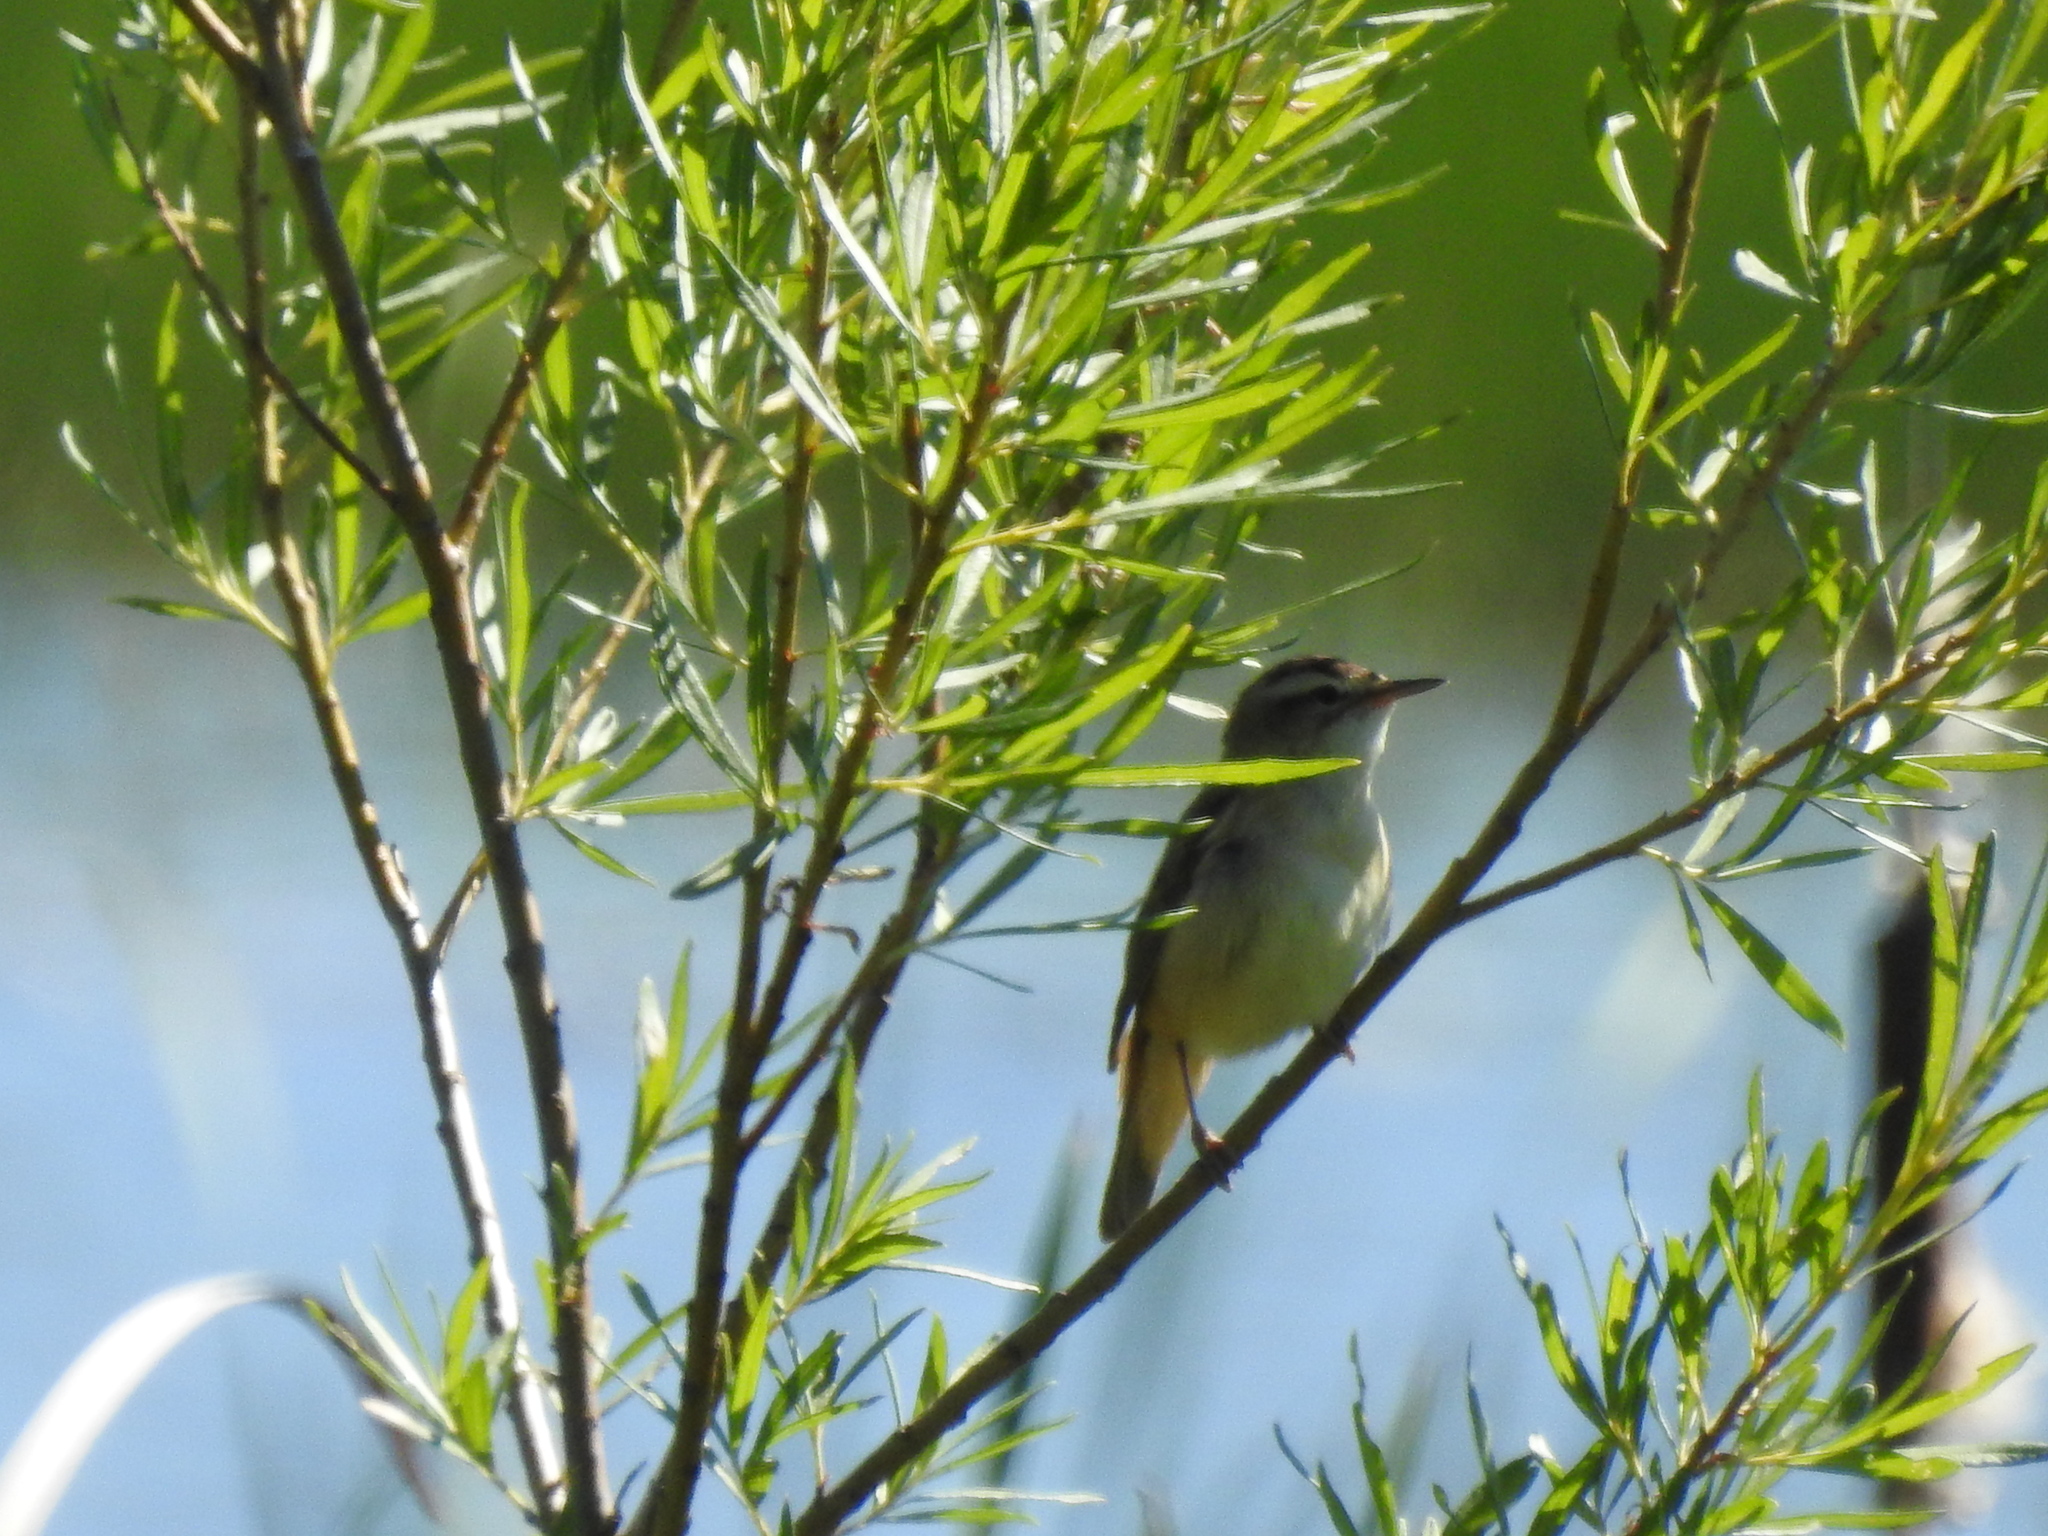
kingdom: Animalia
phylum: Chordata
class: Aves
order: Passeriformes
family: Acrocephalidae
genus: Acrocephalus
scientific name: Acrocephalus schoenobaenus
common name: Sedge warbler
